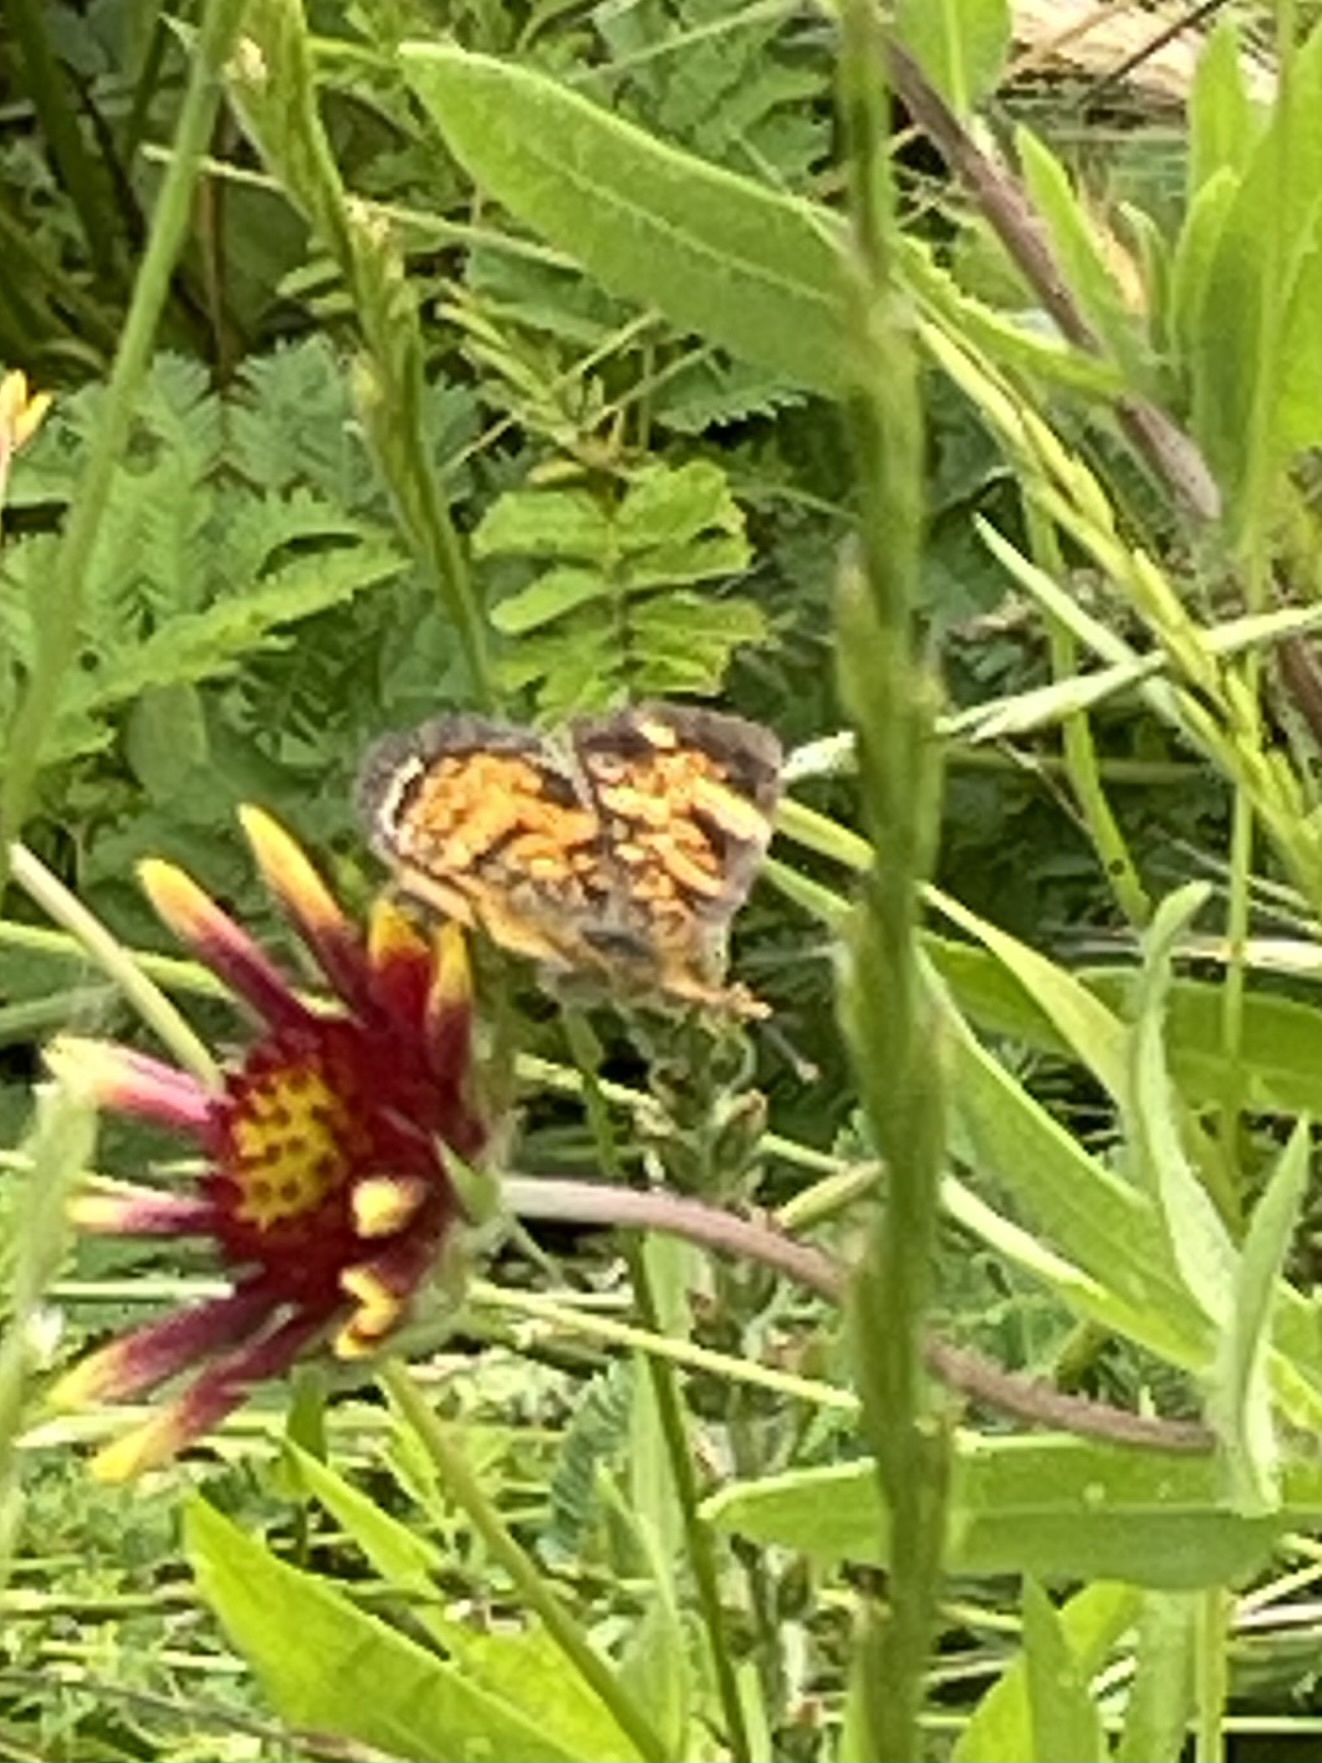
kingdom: Animalia
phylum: Arthropoda
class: Insecta
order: Lepidoptera
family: Nymphalidae
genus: Phyciodes
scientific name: Phyciodes tharos
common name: Pearl crescent
